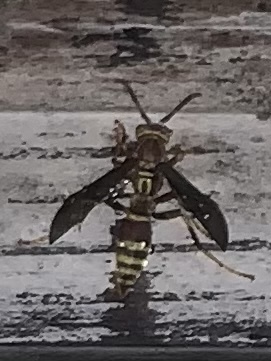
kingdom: Animalia
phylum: Arthropoda
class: Insecta
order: Hymenoptera
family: Eumenidae
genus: Polistes
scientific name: Polistes fuscatus
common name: Dark paper wasp
